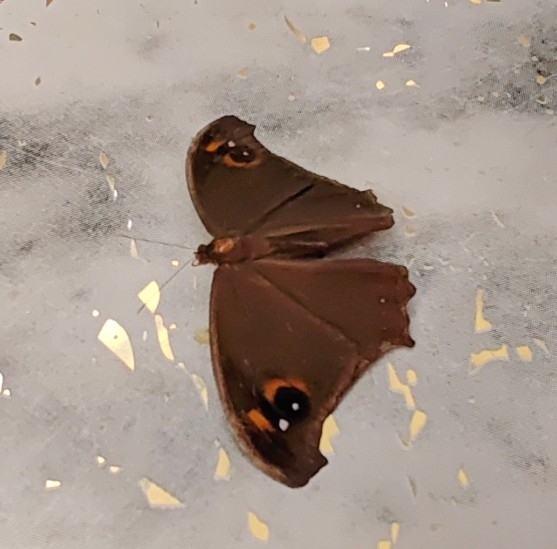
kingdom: Animalia
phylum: Arthropoda
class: Insecta
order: Lepidoptera
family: Nymphalidae
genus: Melanitis
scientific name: Melanitis leda
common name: Twilight brown
